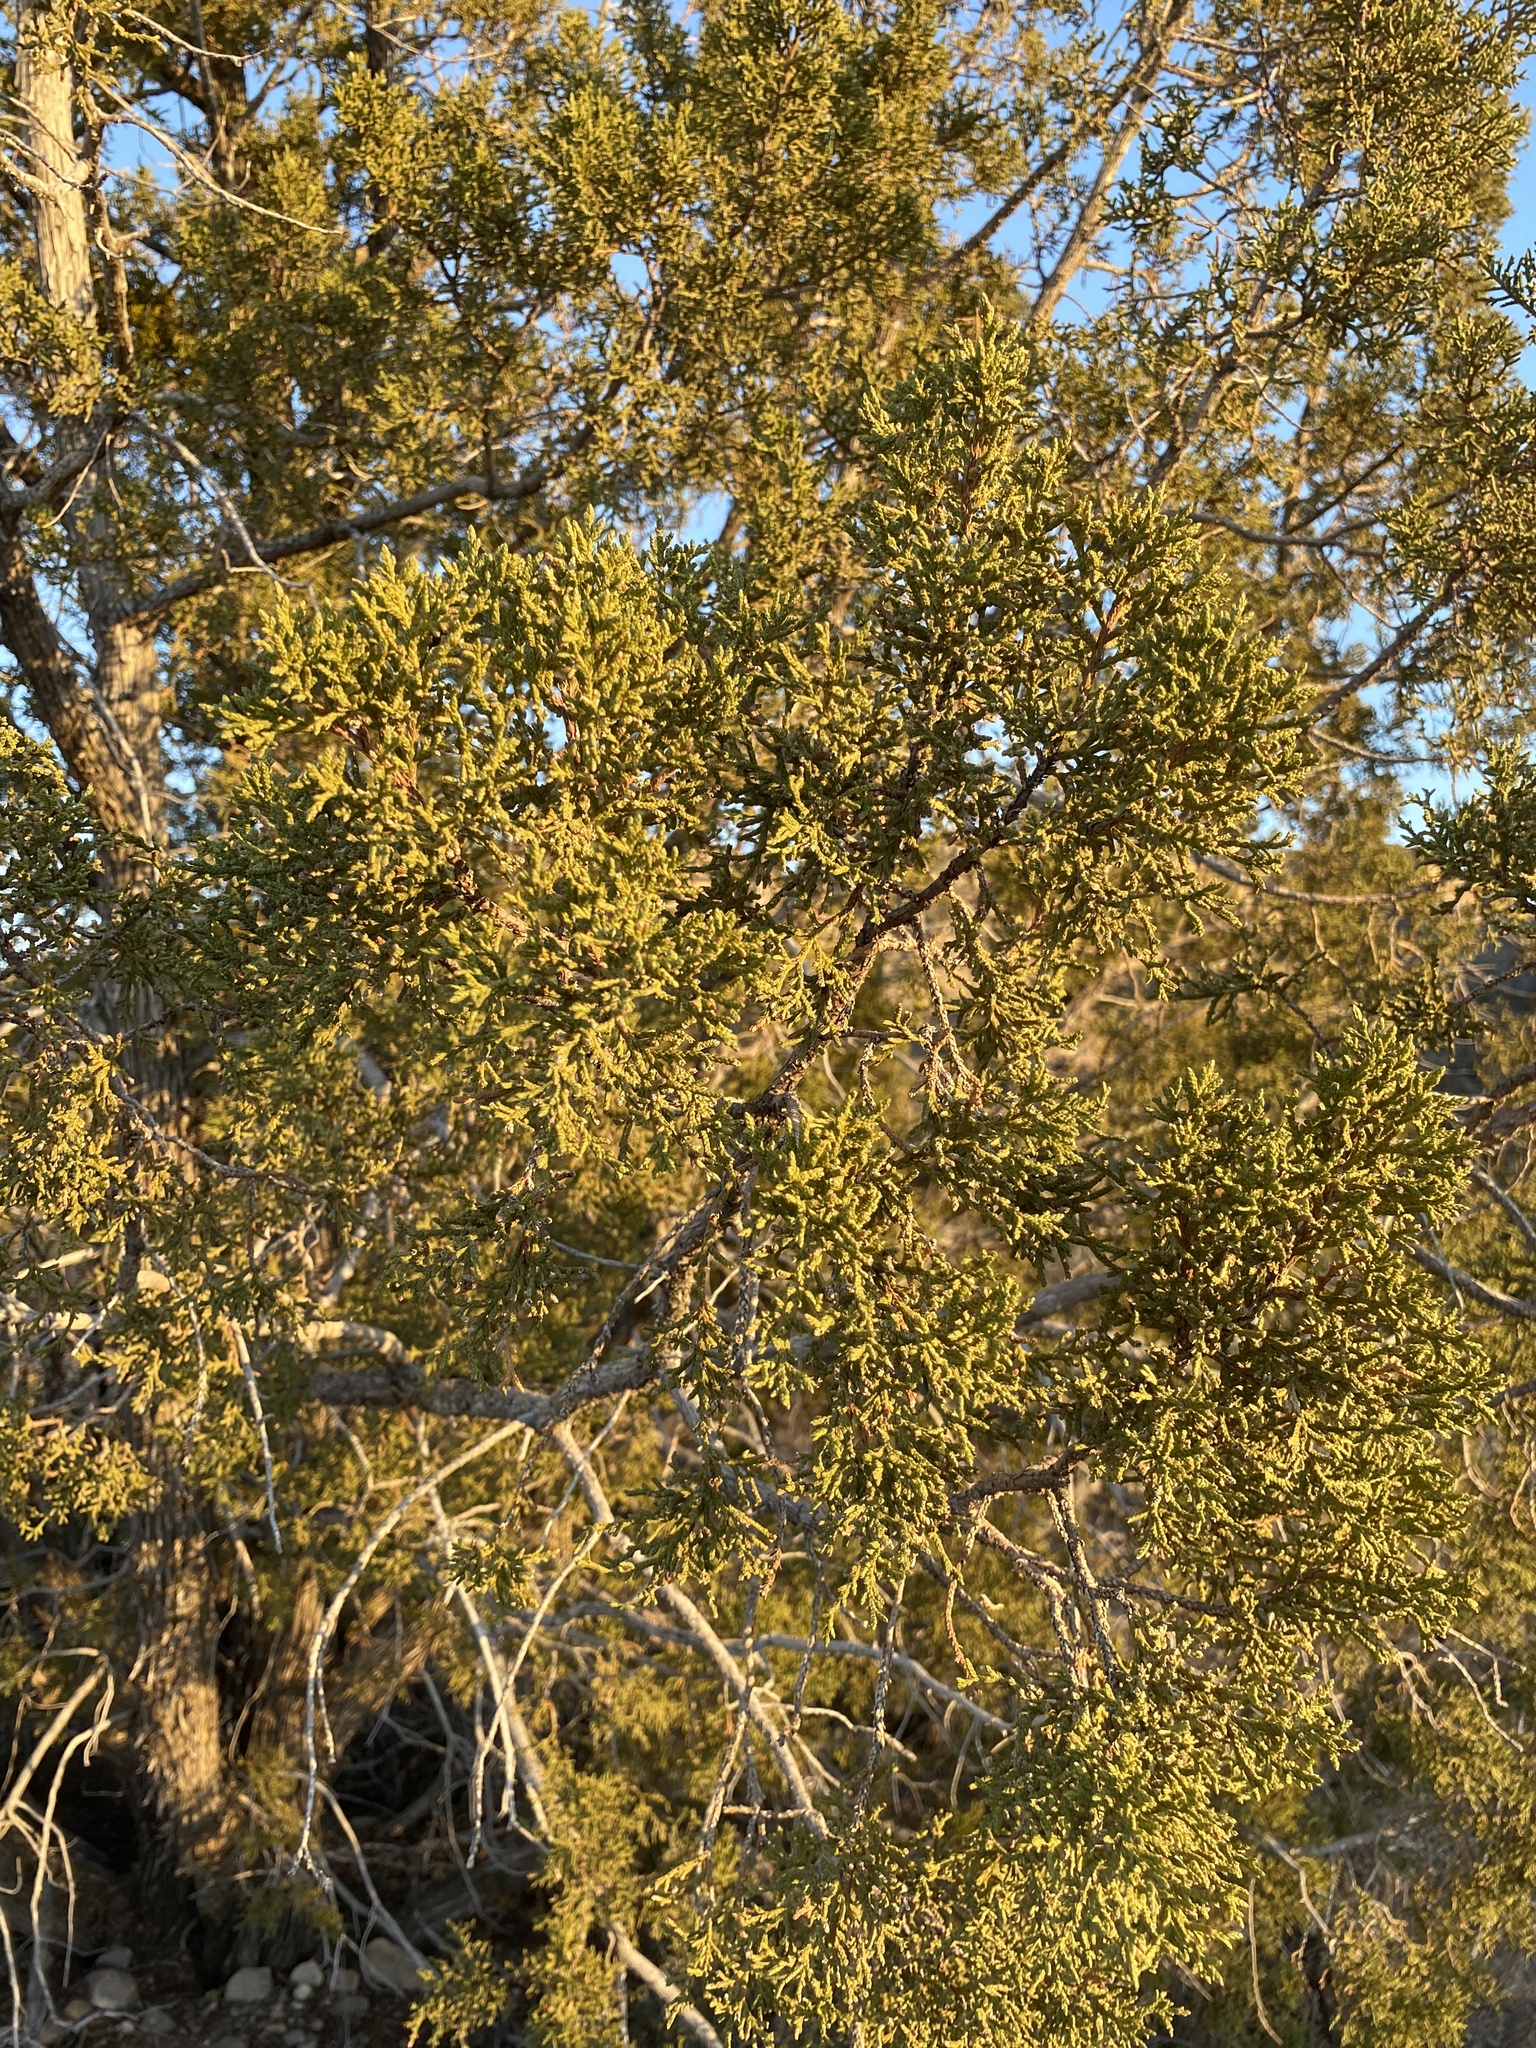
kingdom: Plantae
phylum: Tracheophyta
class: Pinopsida
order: Pinales
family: Cupressaceae
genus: Juniperus
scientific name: Juniperus monosperma
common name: One-seed juniper
